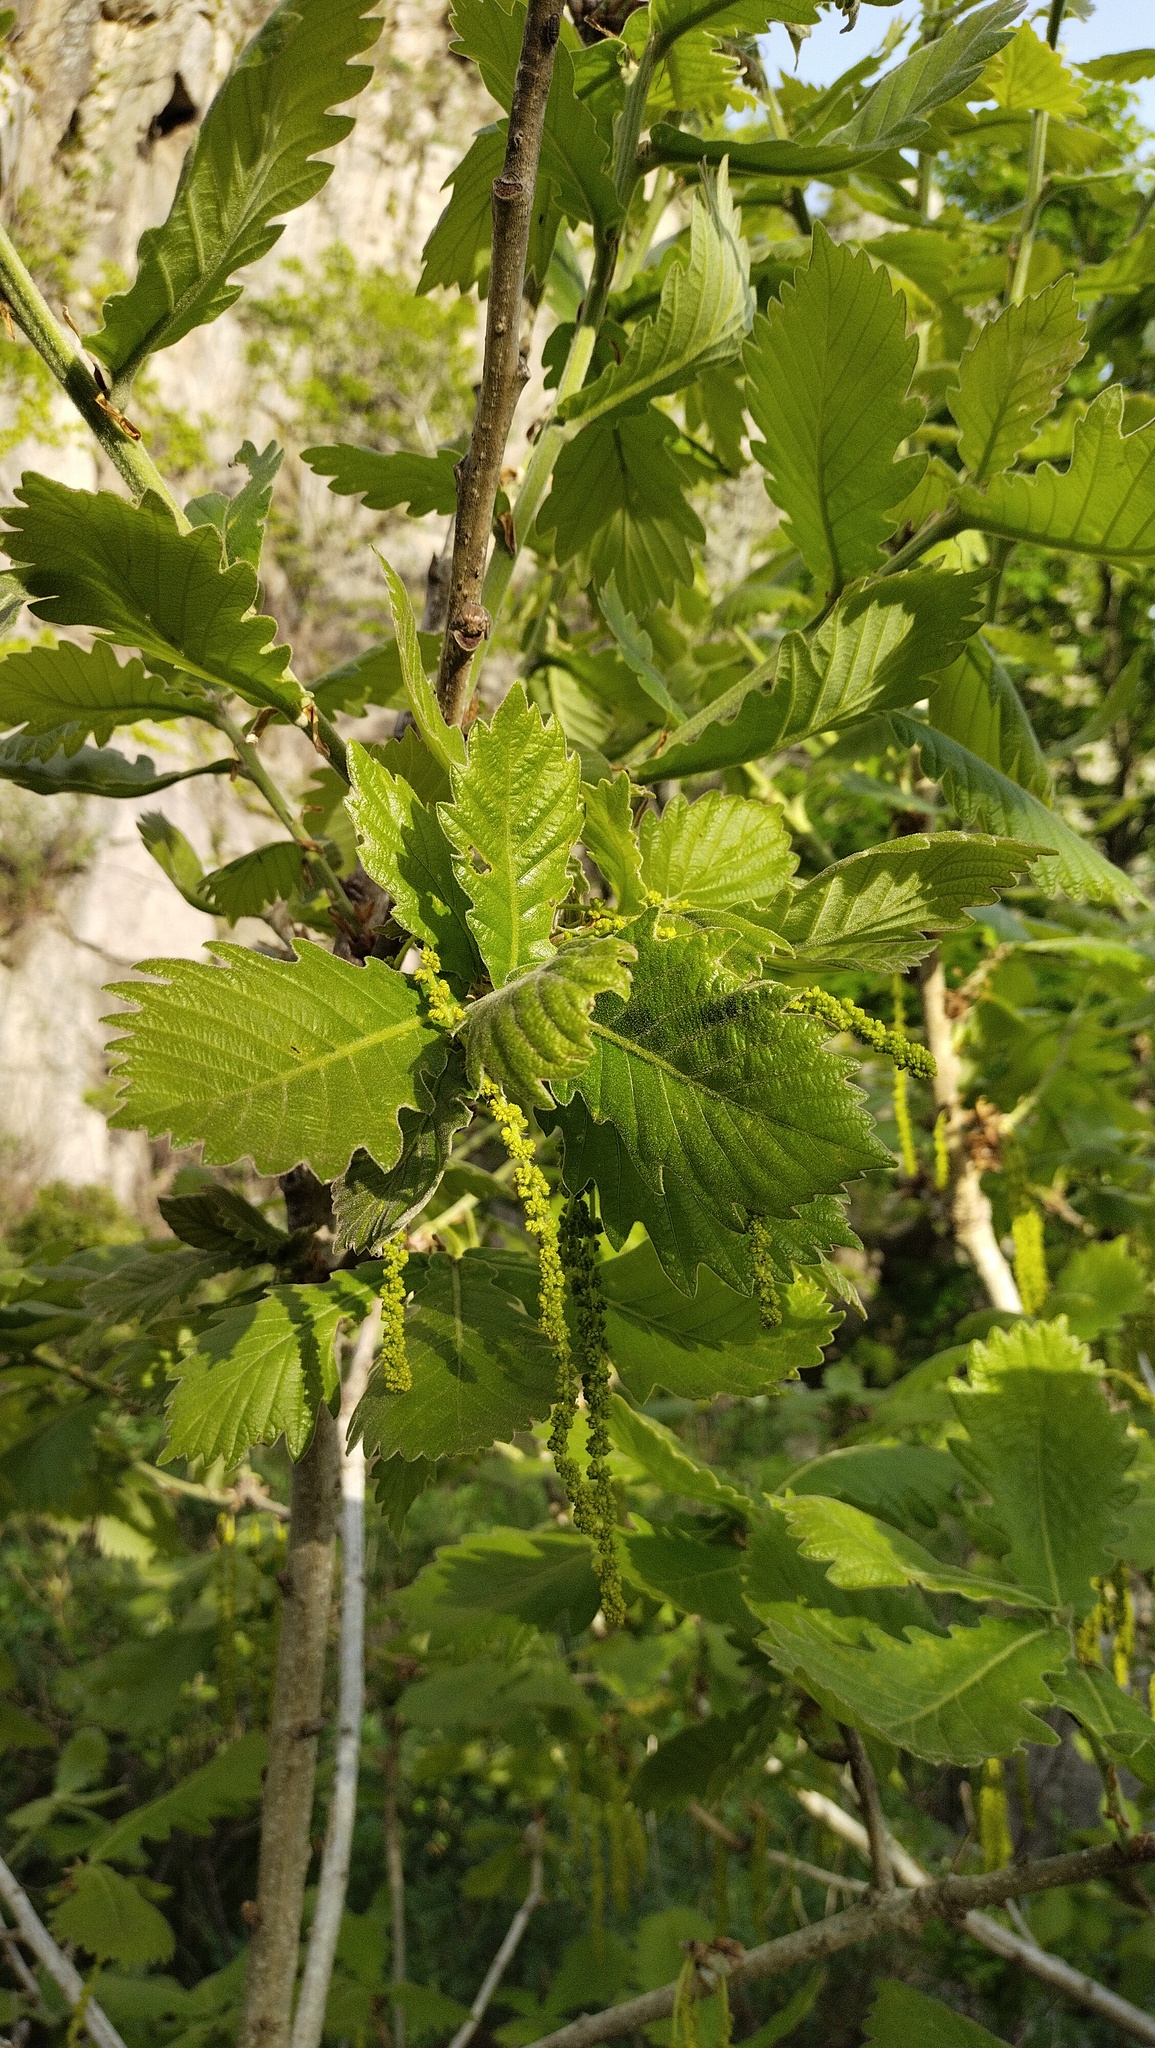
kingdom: Plantae
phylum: Tracheophyta
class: Magnoliopsida
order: Fagales
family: Fagaceae
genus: Quercus
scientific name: Quercus dentata
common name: Daimyo oak
